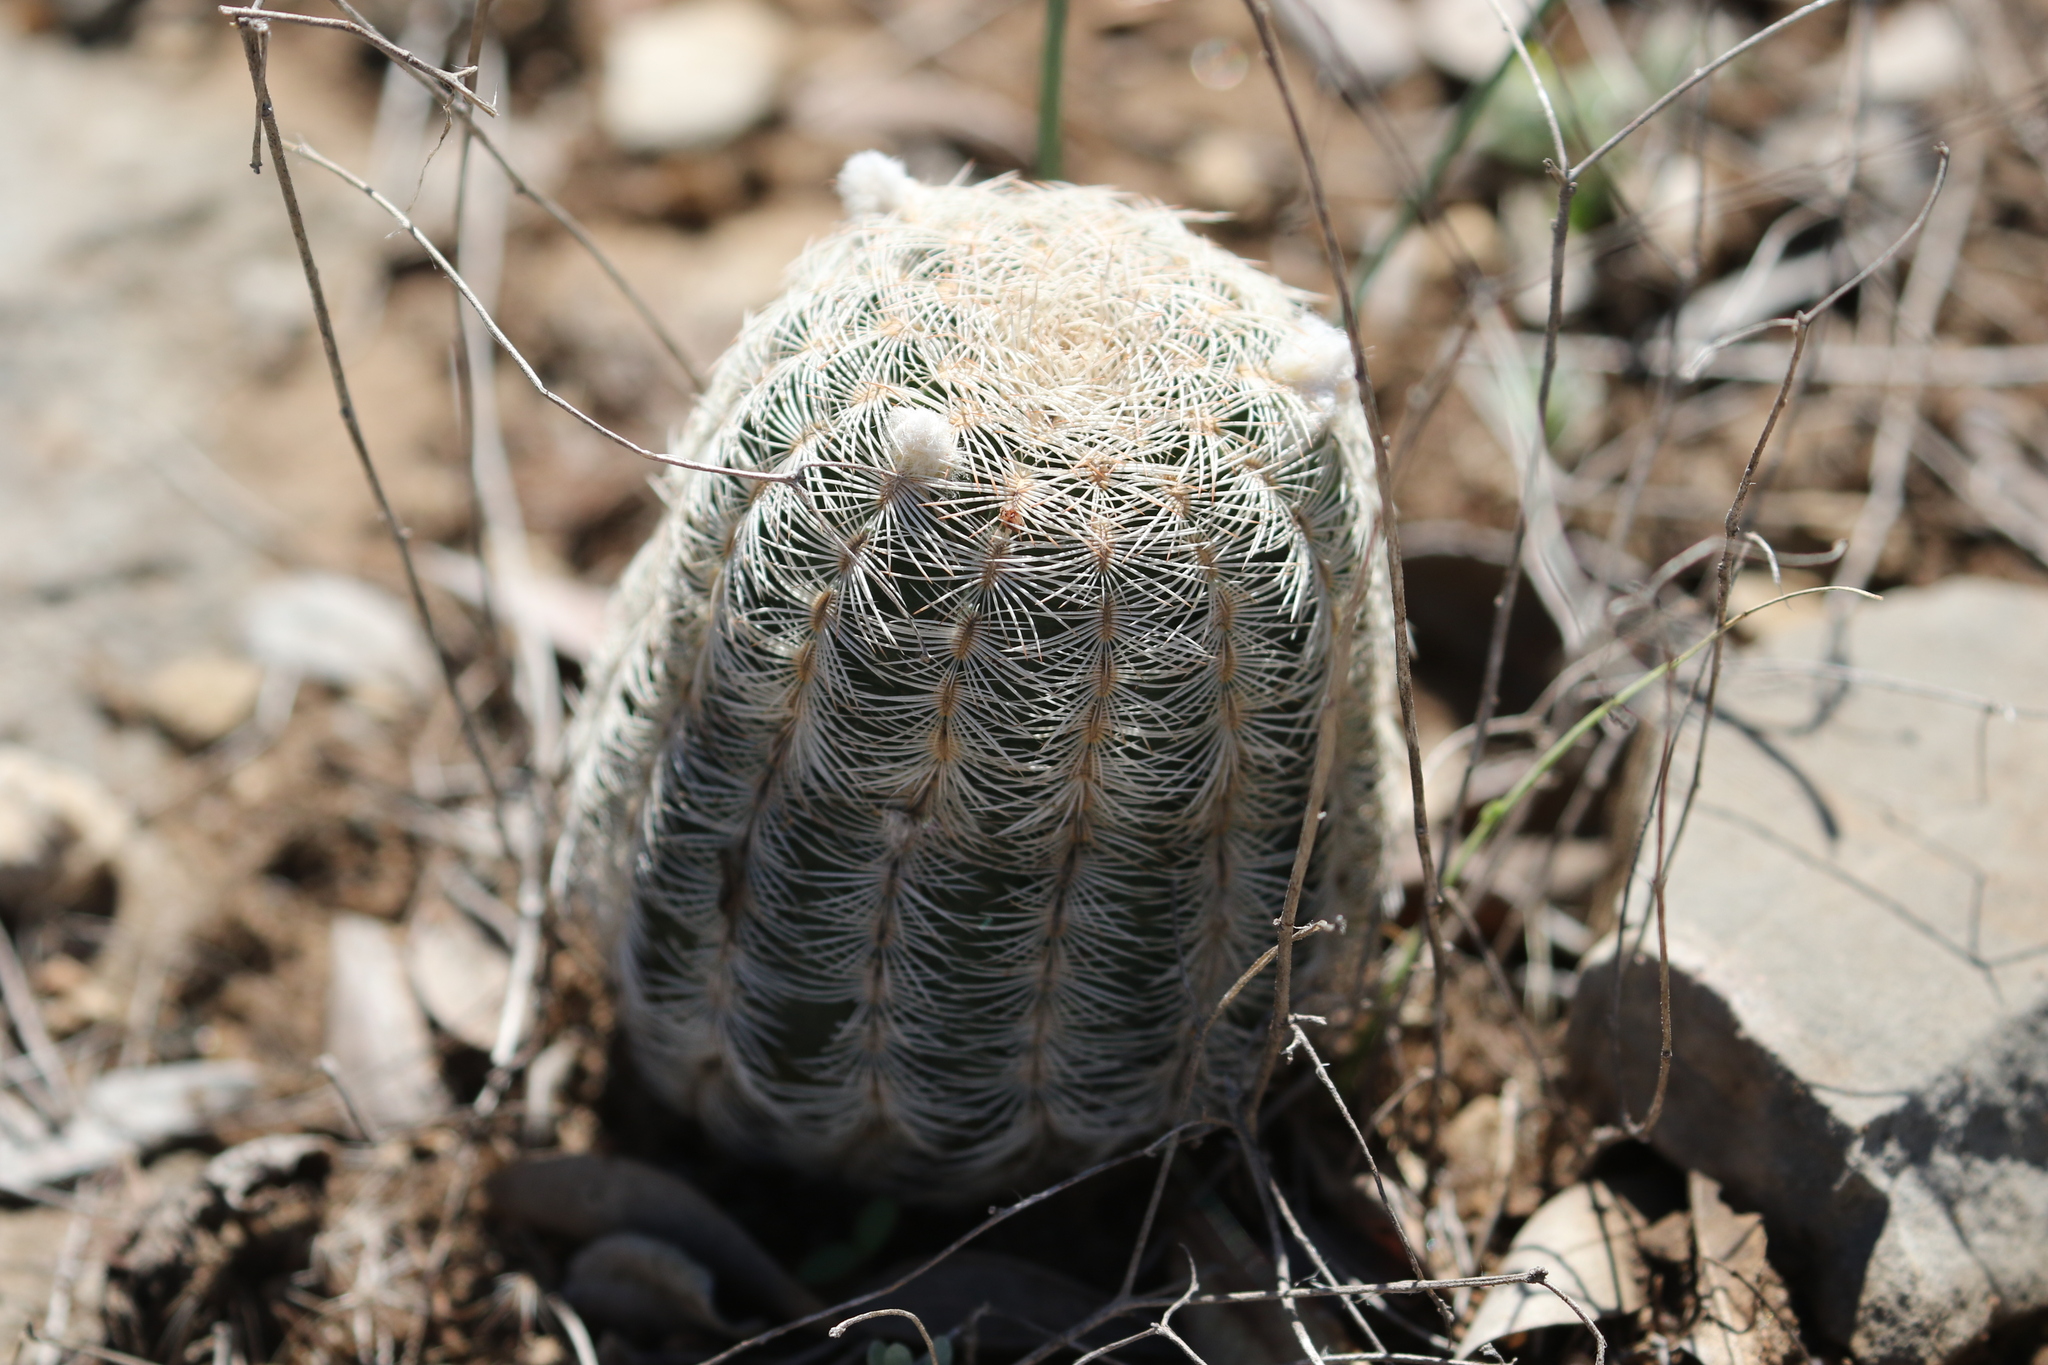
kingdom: Plantae
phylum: Tracheophyta
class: Magnoliopsida
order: Caryophyllales
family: Cactaceae
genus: Echinocereus
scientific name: Echinocereus reichenbachii
